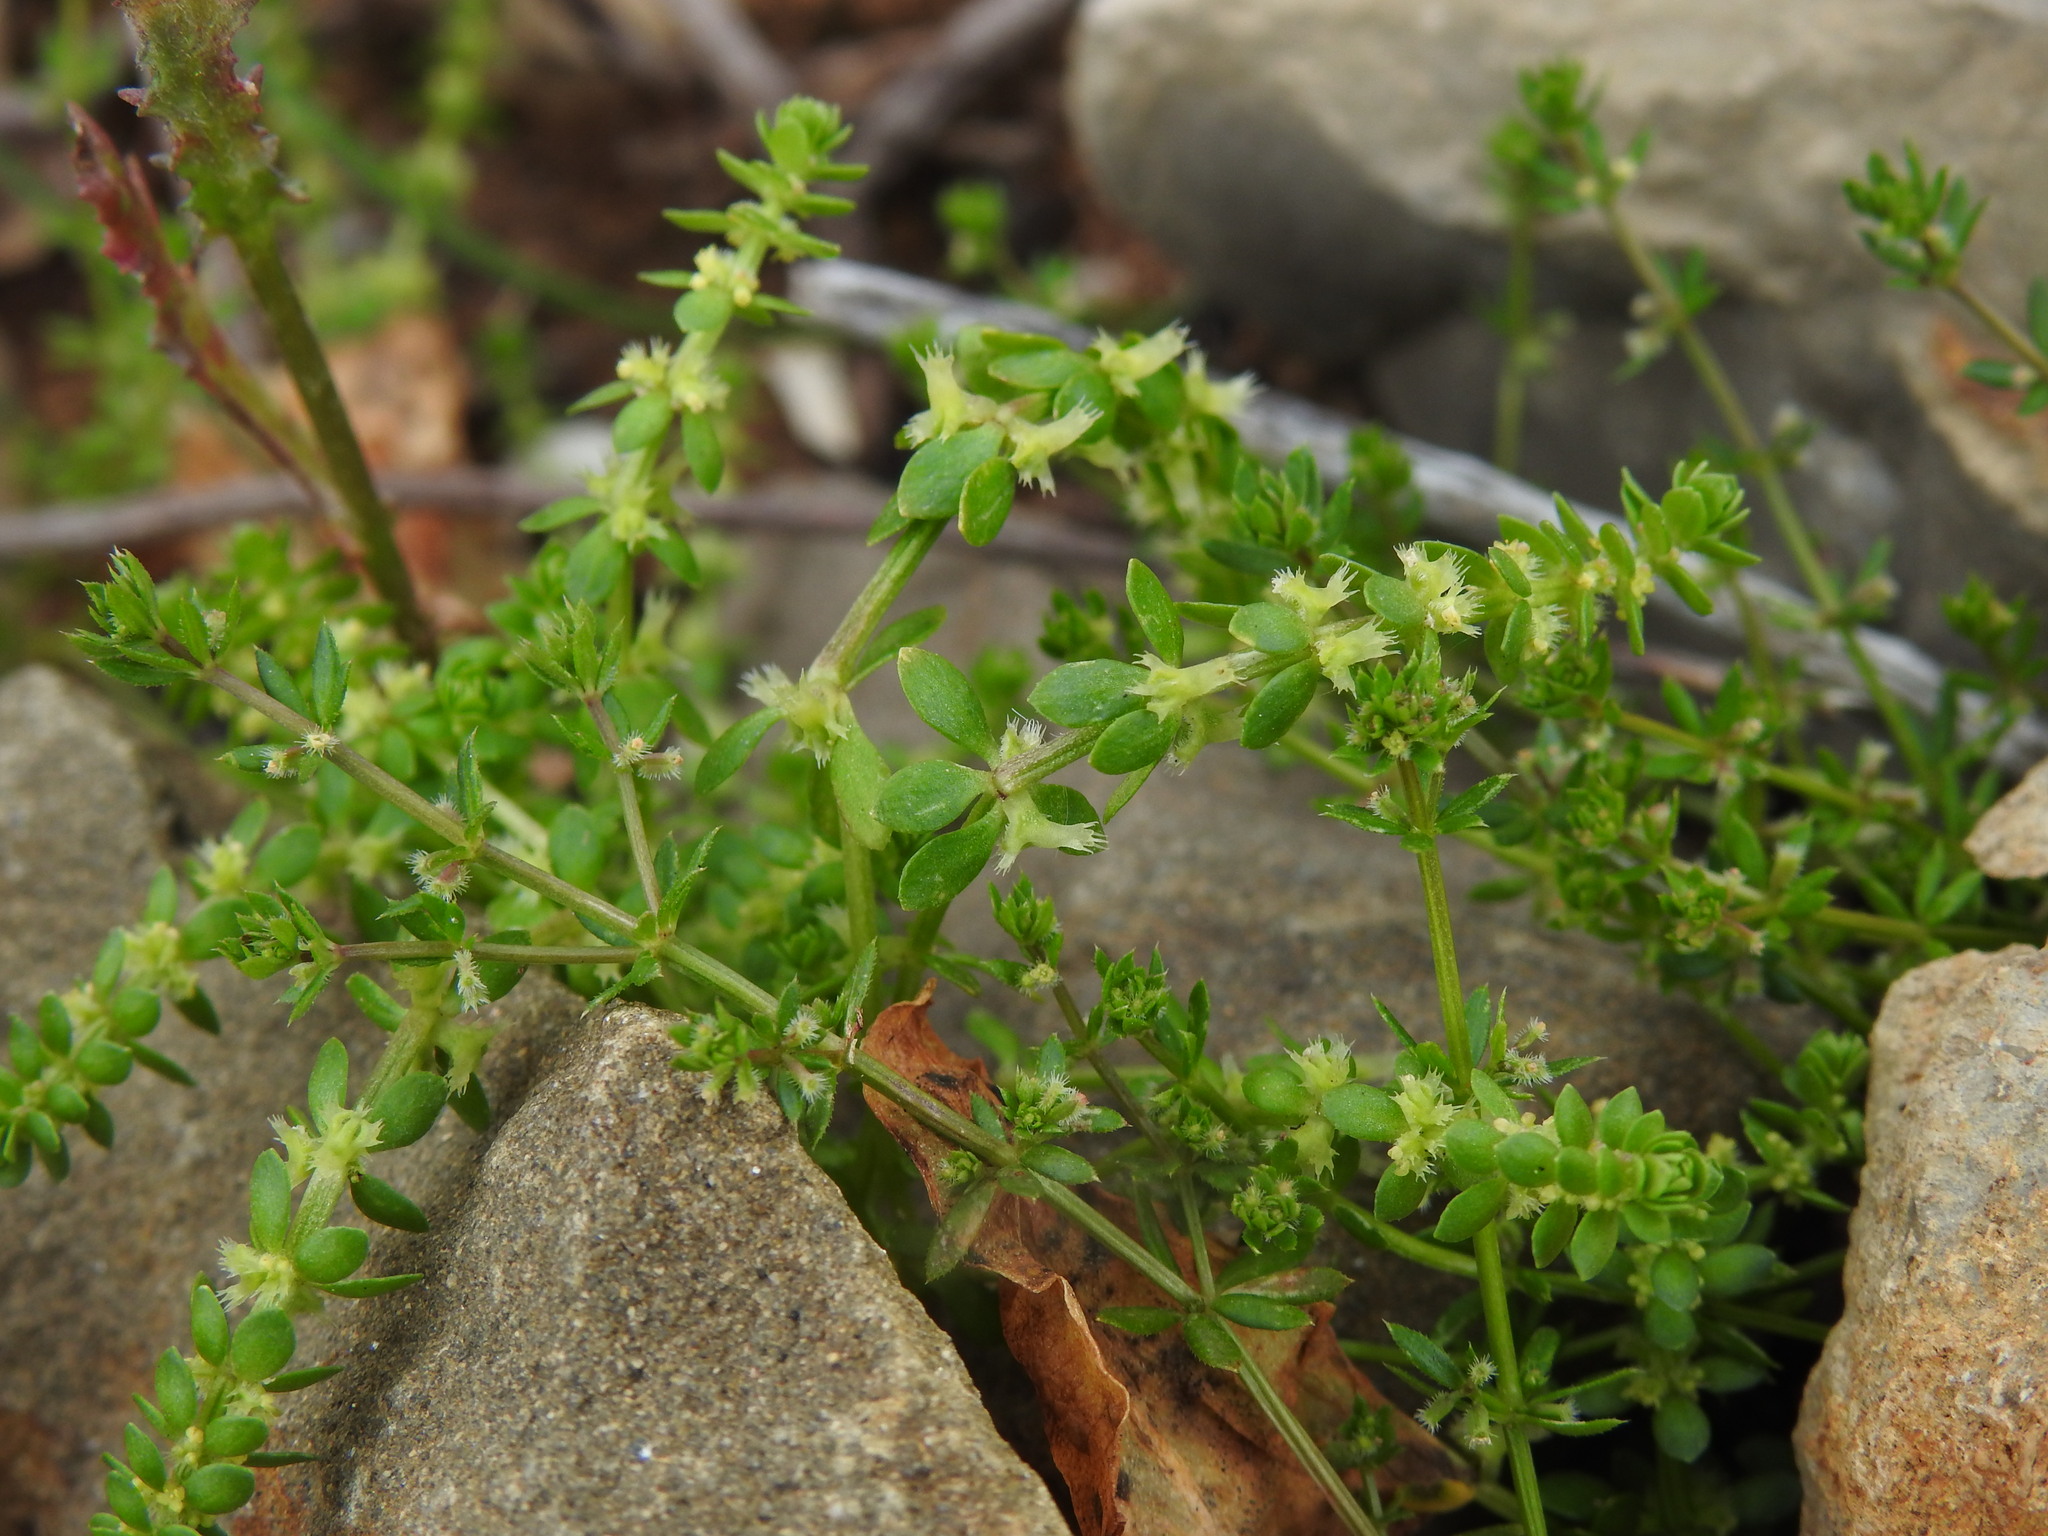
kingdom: Plantae
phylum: Tracheophyta
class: Magnoliopsida
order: Gentianales
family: Rubiaceae
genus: Valantia
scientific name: Valantia muralis
